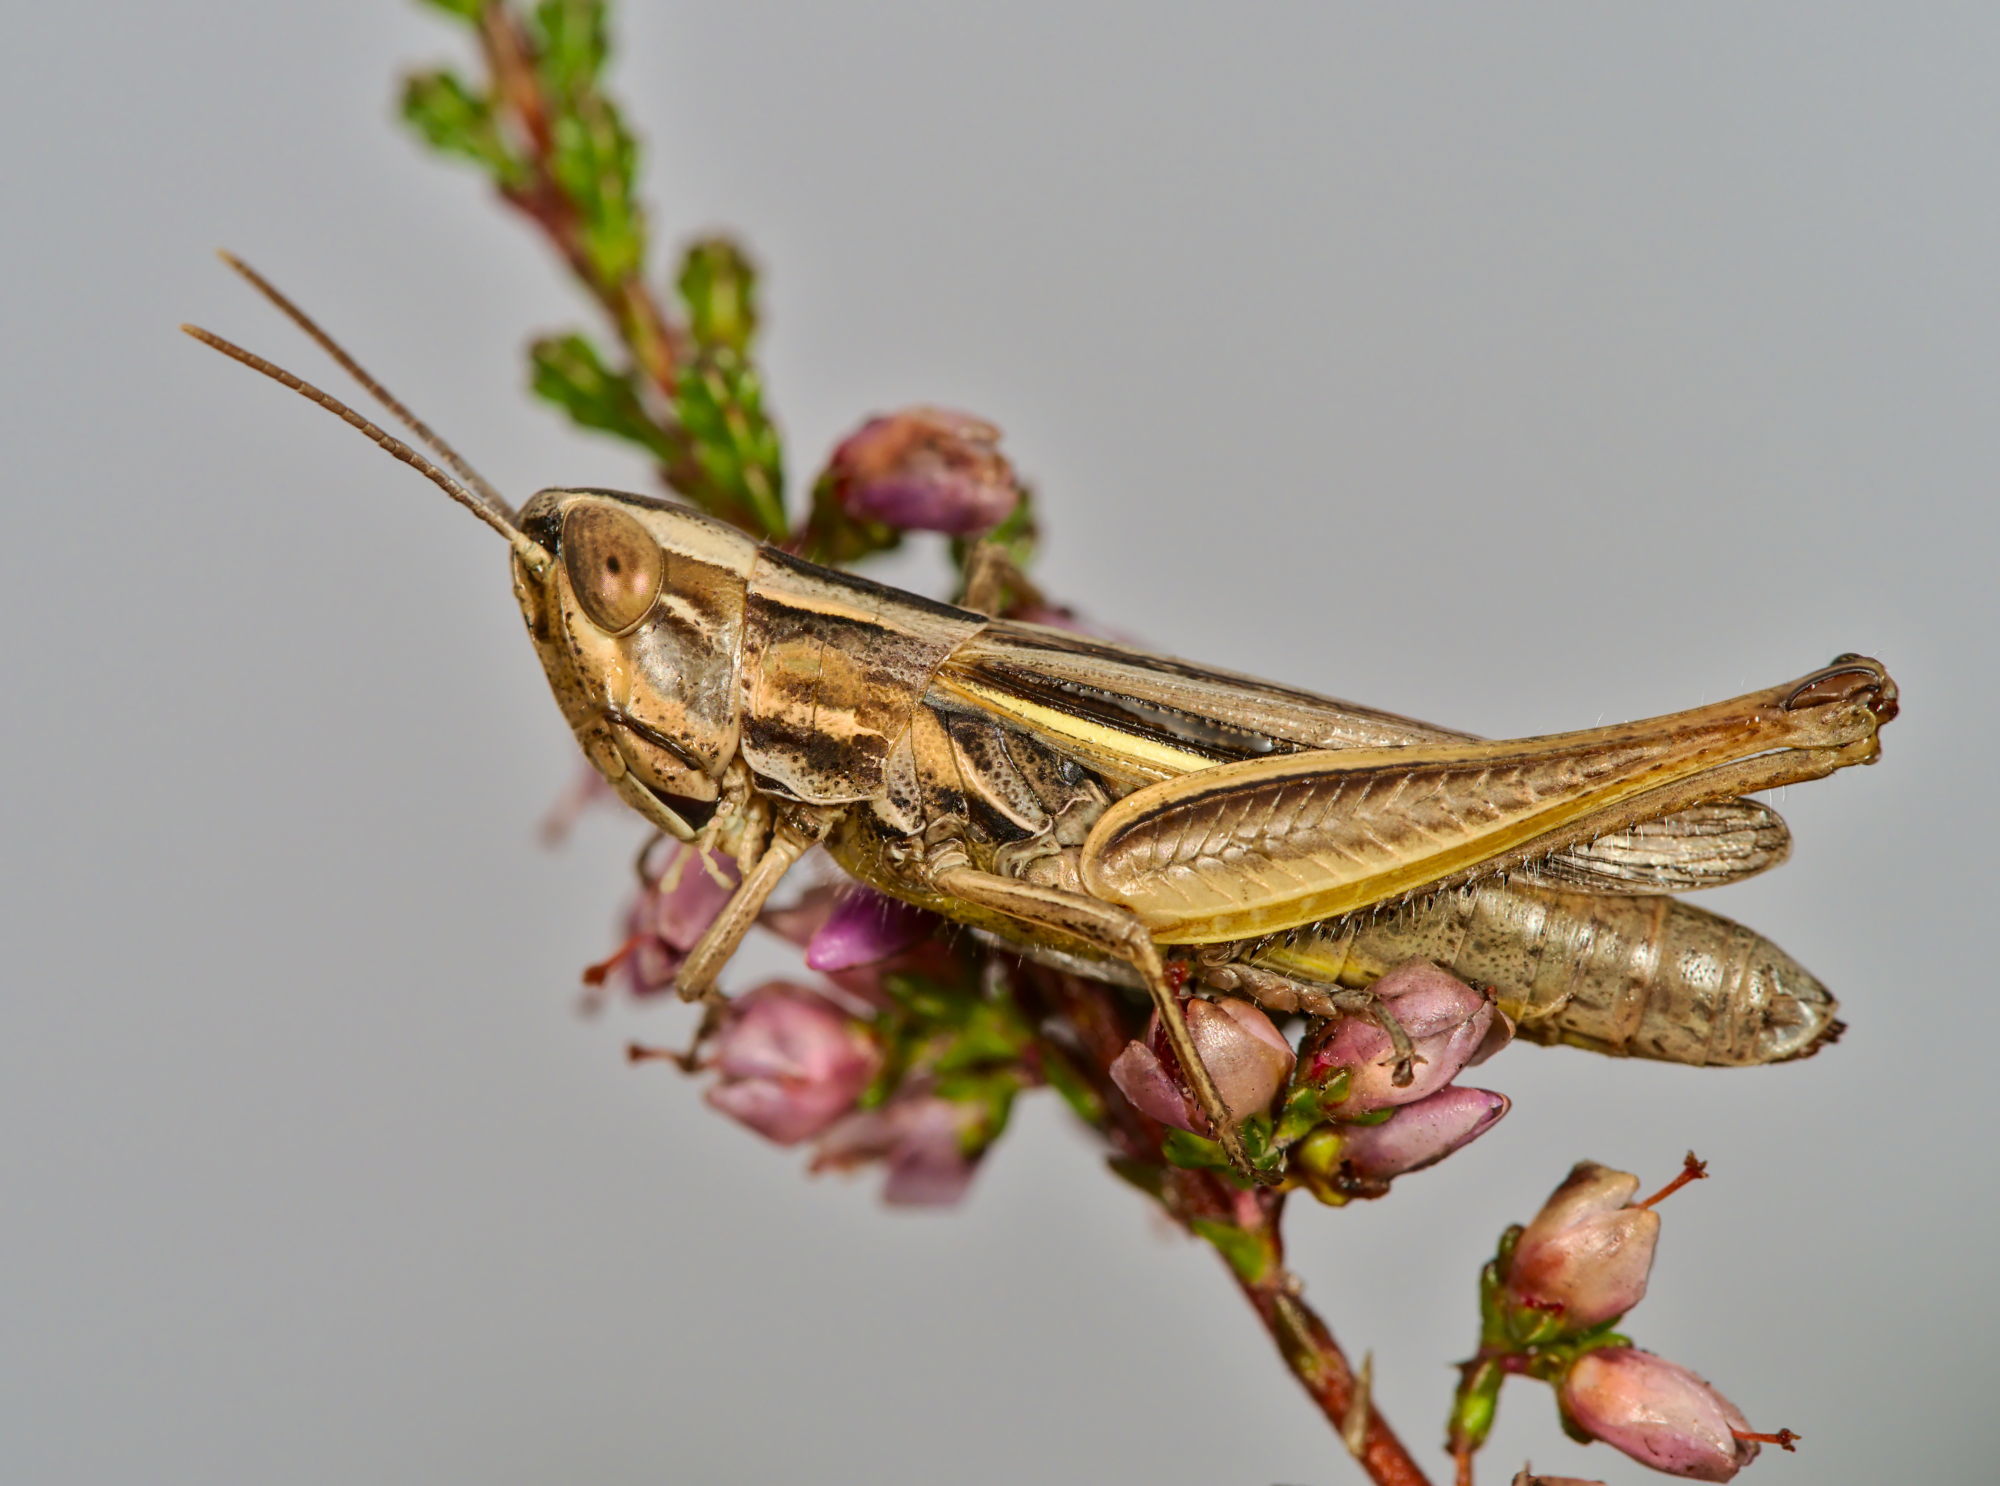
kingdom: Animalia
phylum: Arthropoda
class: Insecta
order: Orthoptera
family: Acrididae
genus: Euchorthippus
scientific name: Euchorthippus elegantulus
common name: Elegant straw grasshopper
